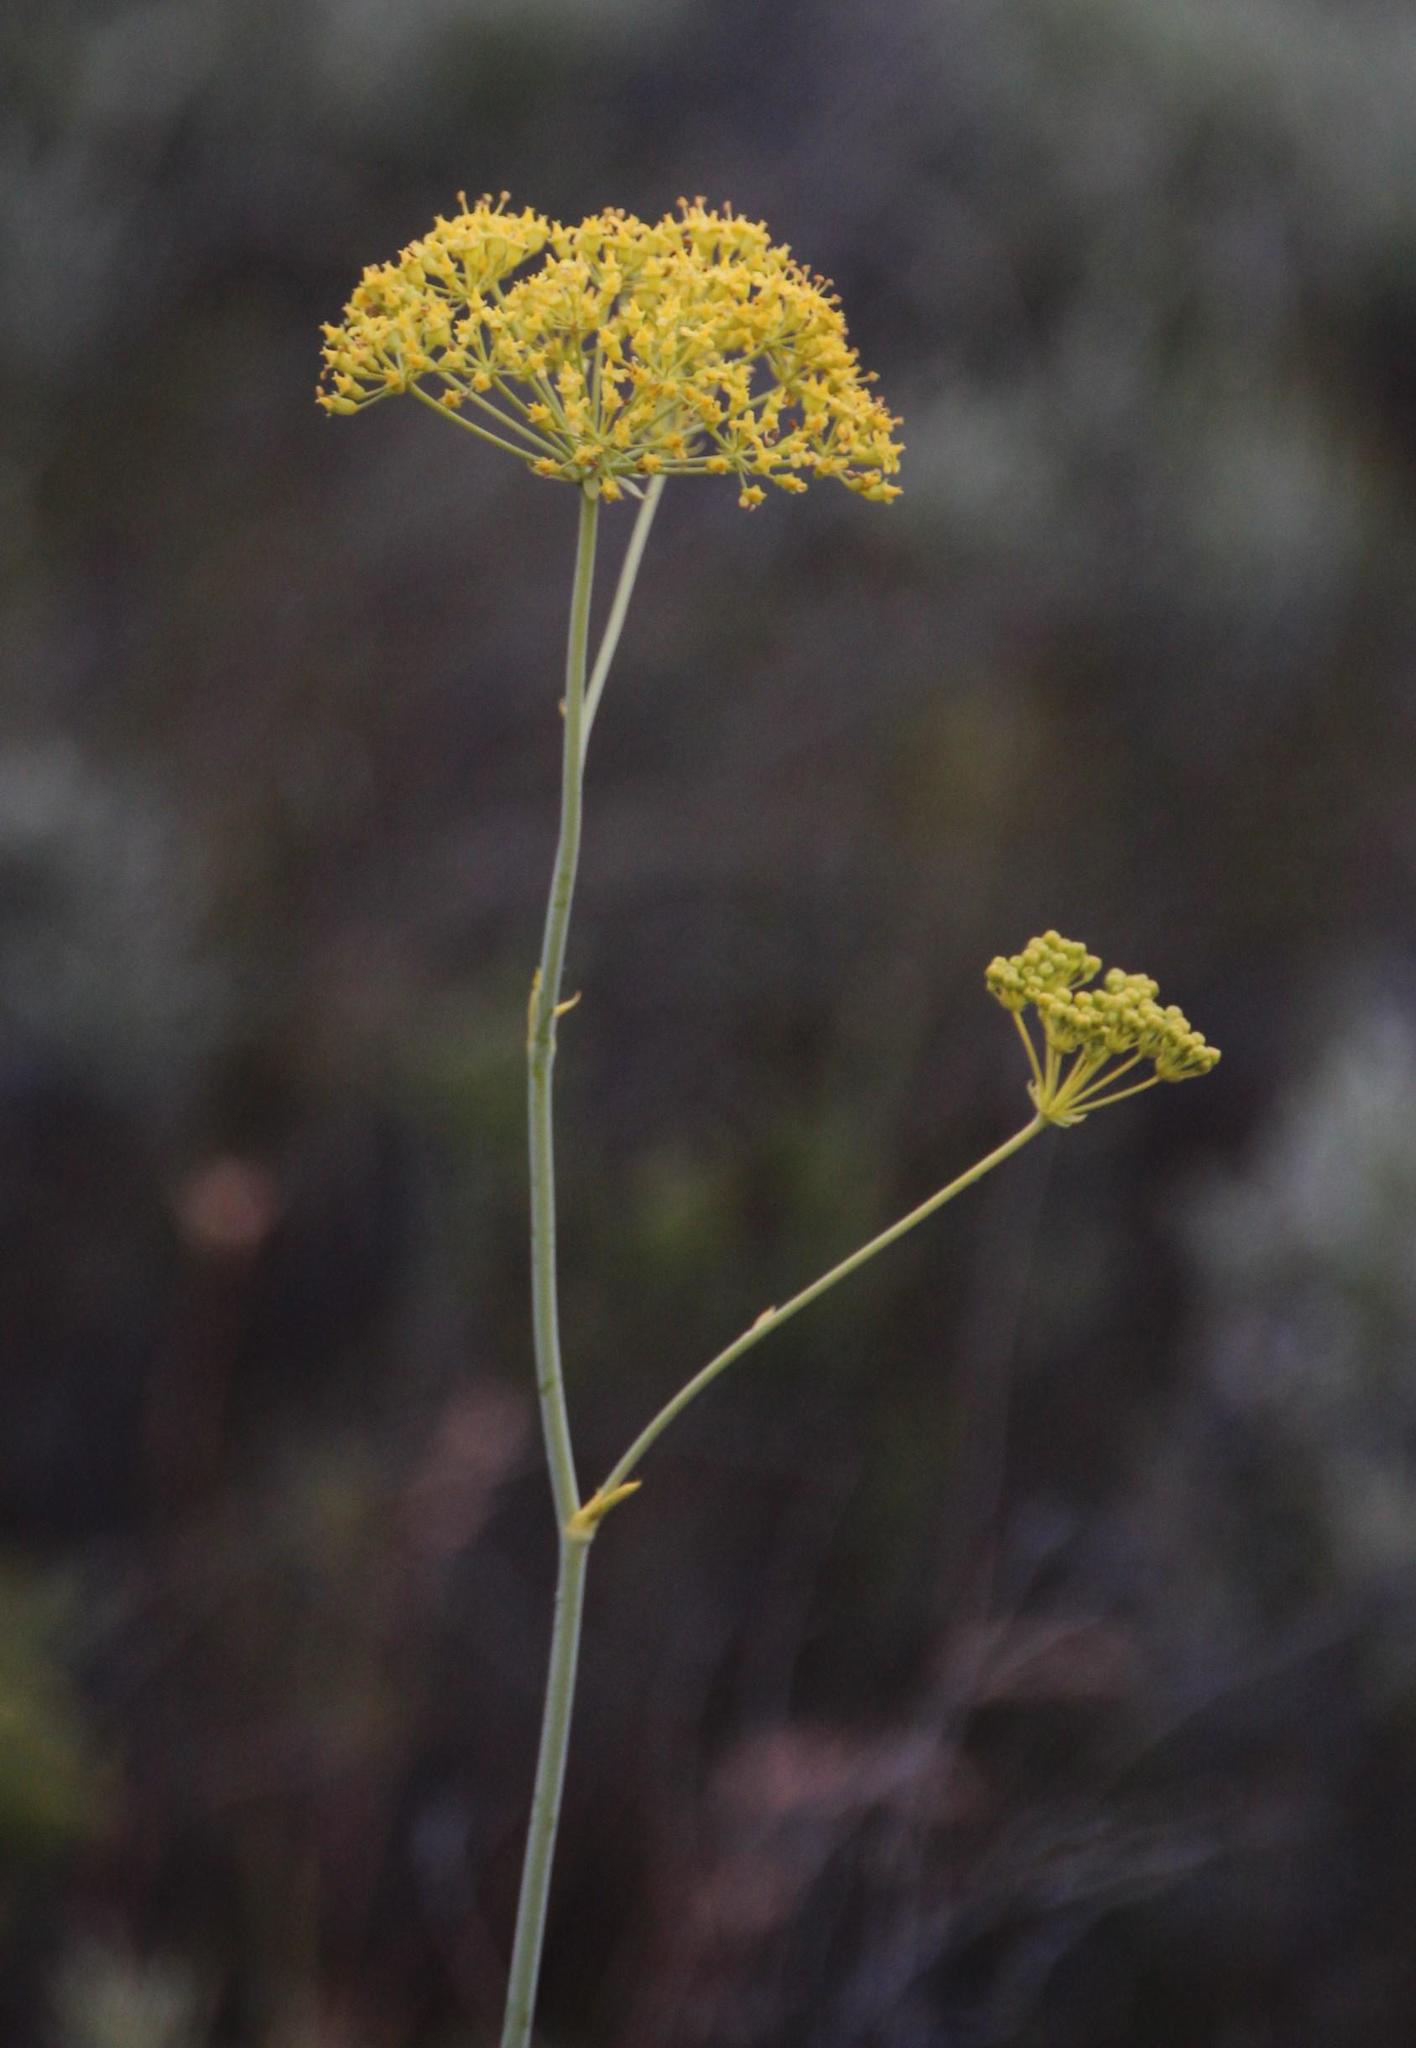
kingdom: Plantae
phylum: Tracheophyta
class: Magnoliopsida
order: Apiales
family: Apiaceae
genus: Lichtensteinia
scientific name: Lichtensteinia trifida
